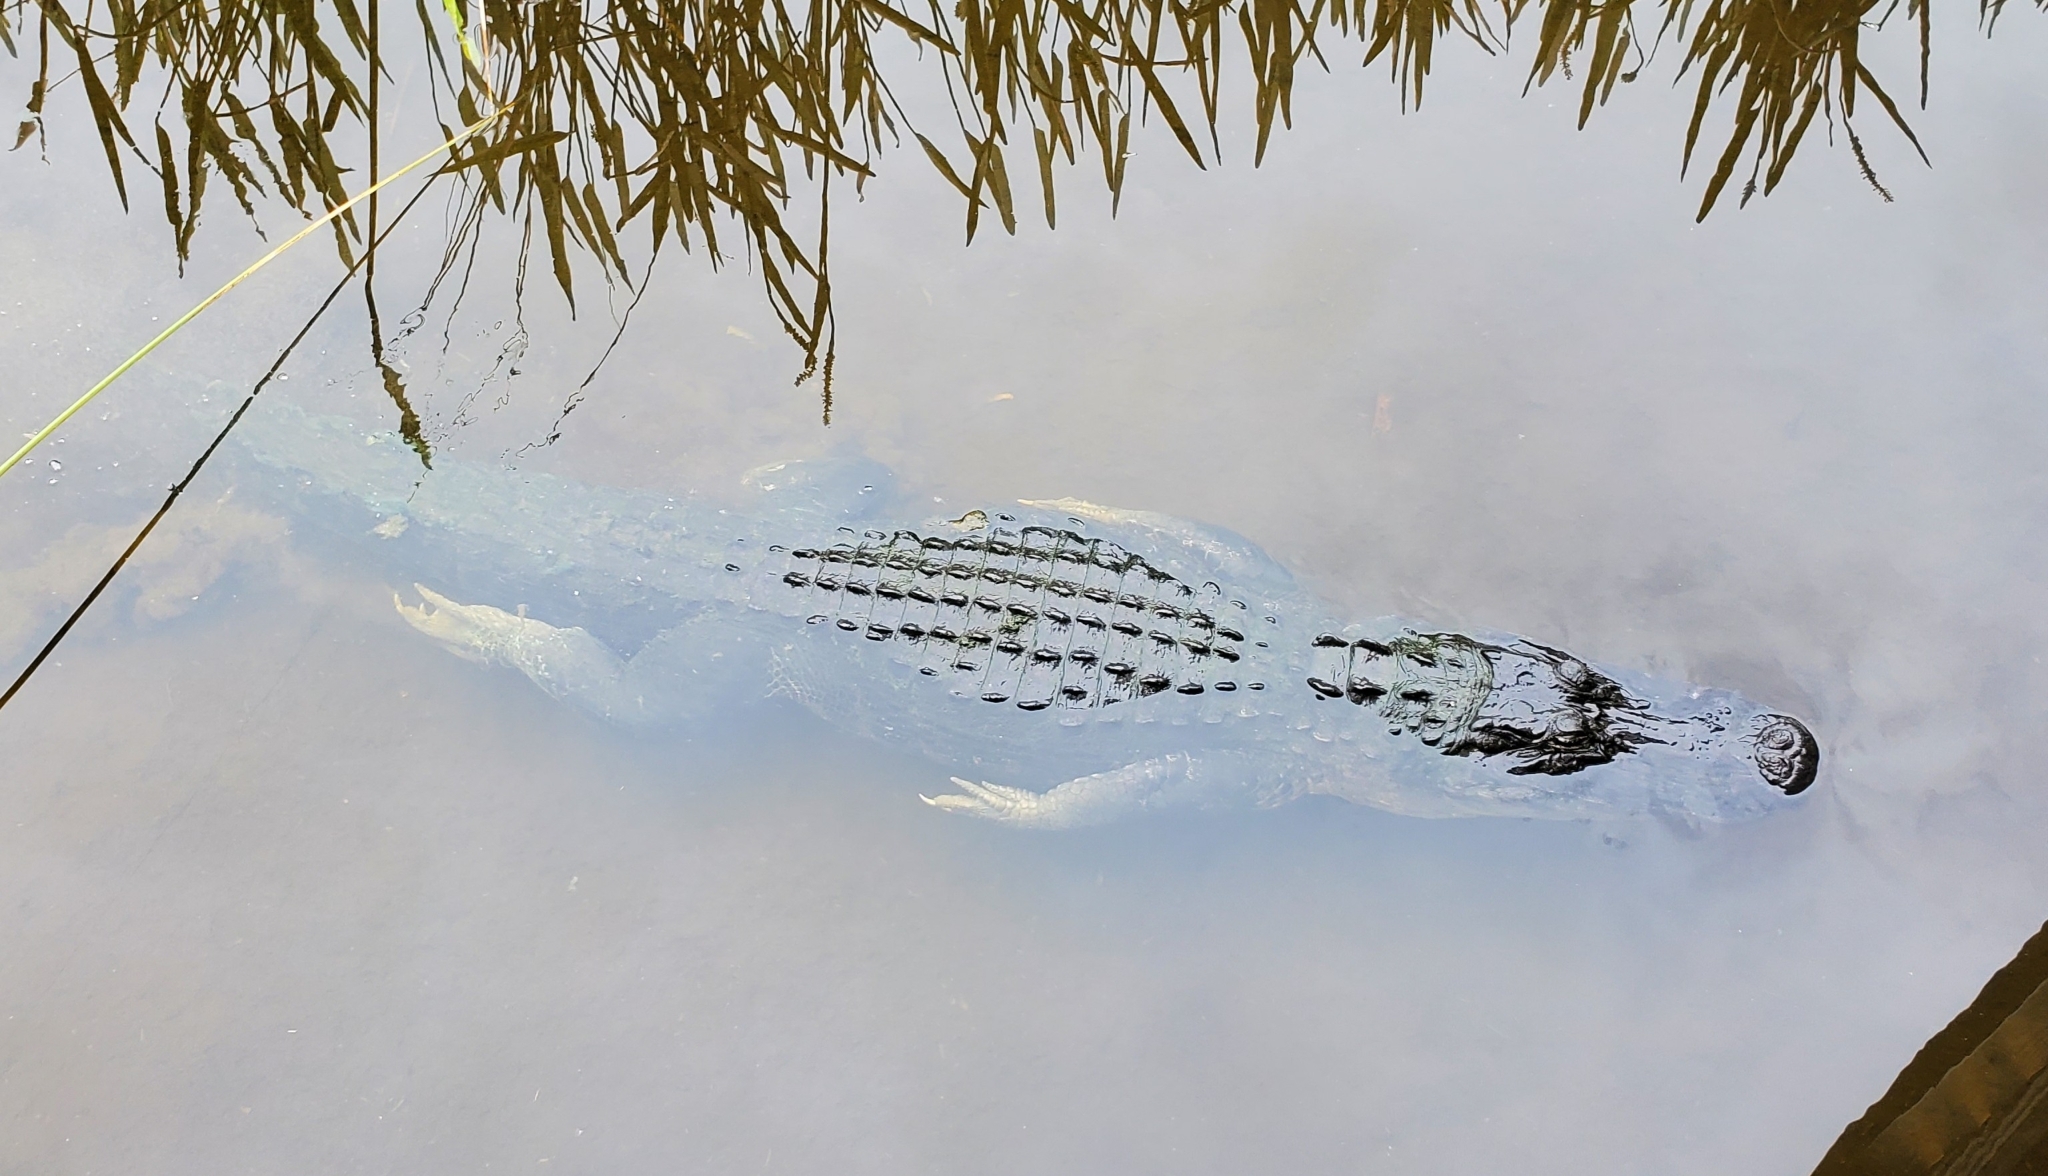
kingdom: Animalia
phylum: Chordata
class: Crocodylia
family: Alligatoridae
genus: Alligator
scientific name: Alligator mississippiensis
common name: American alligator
